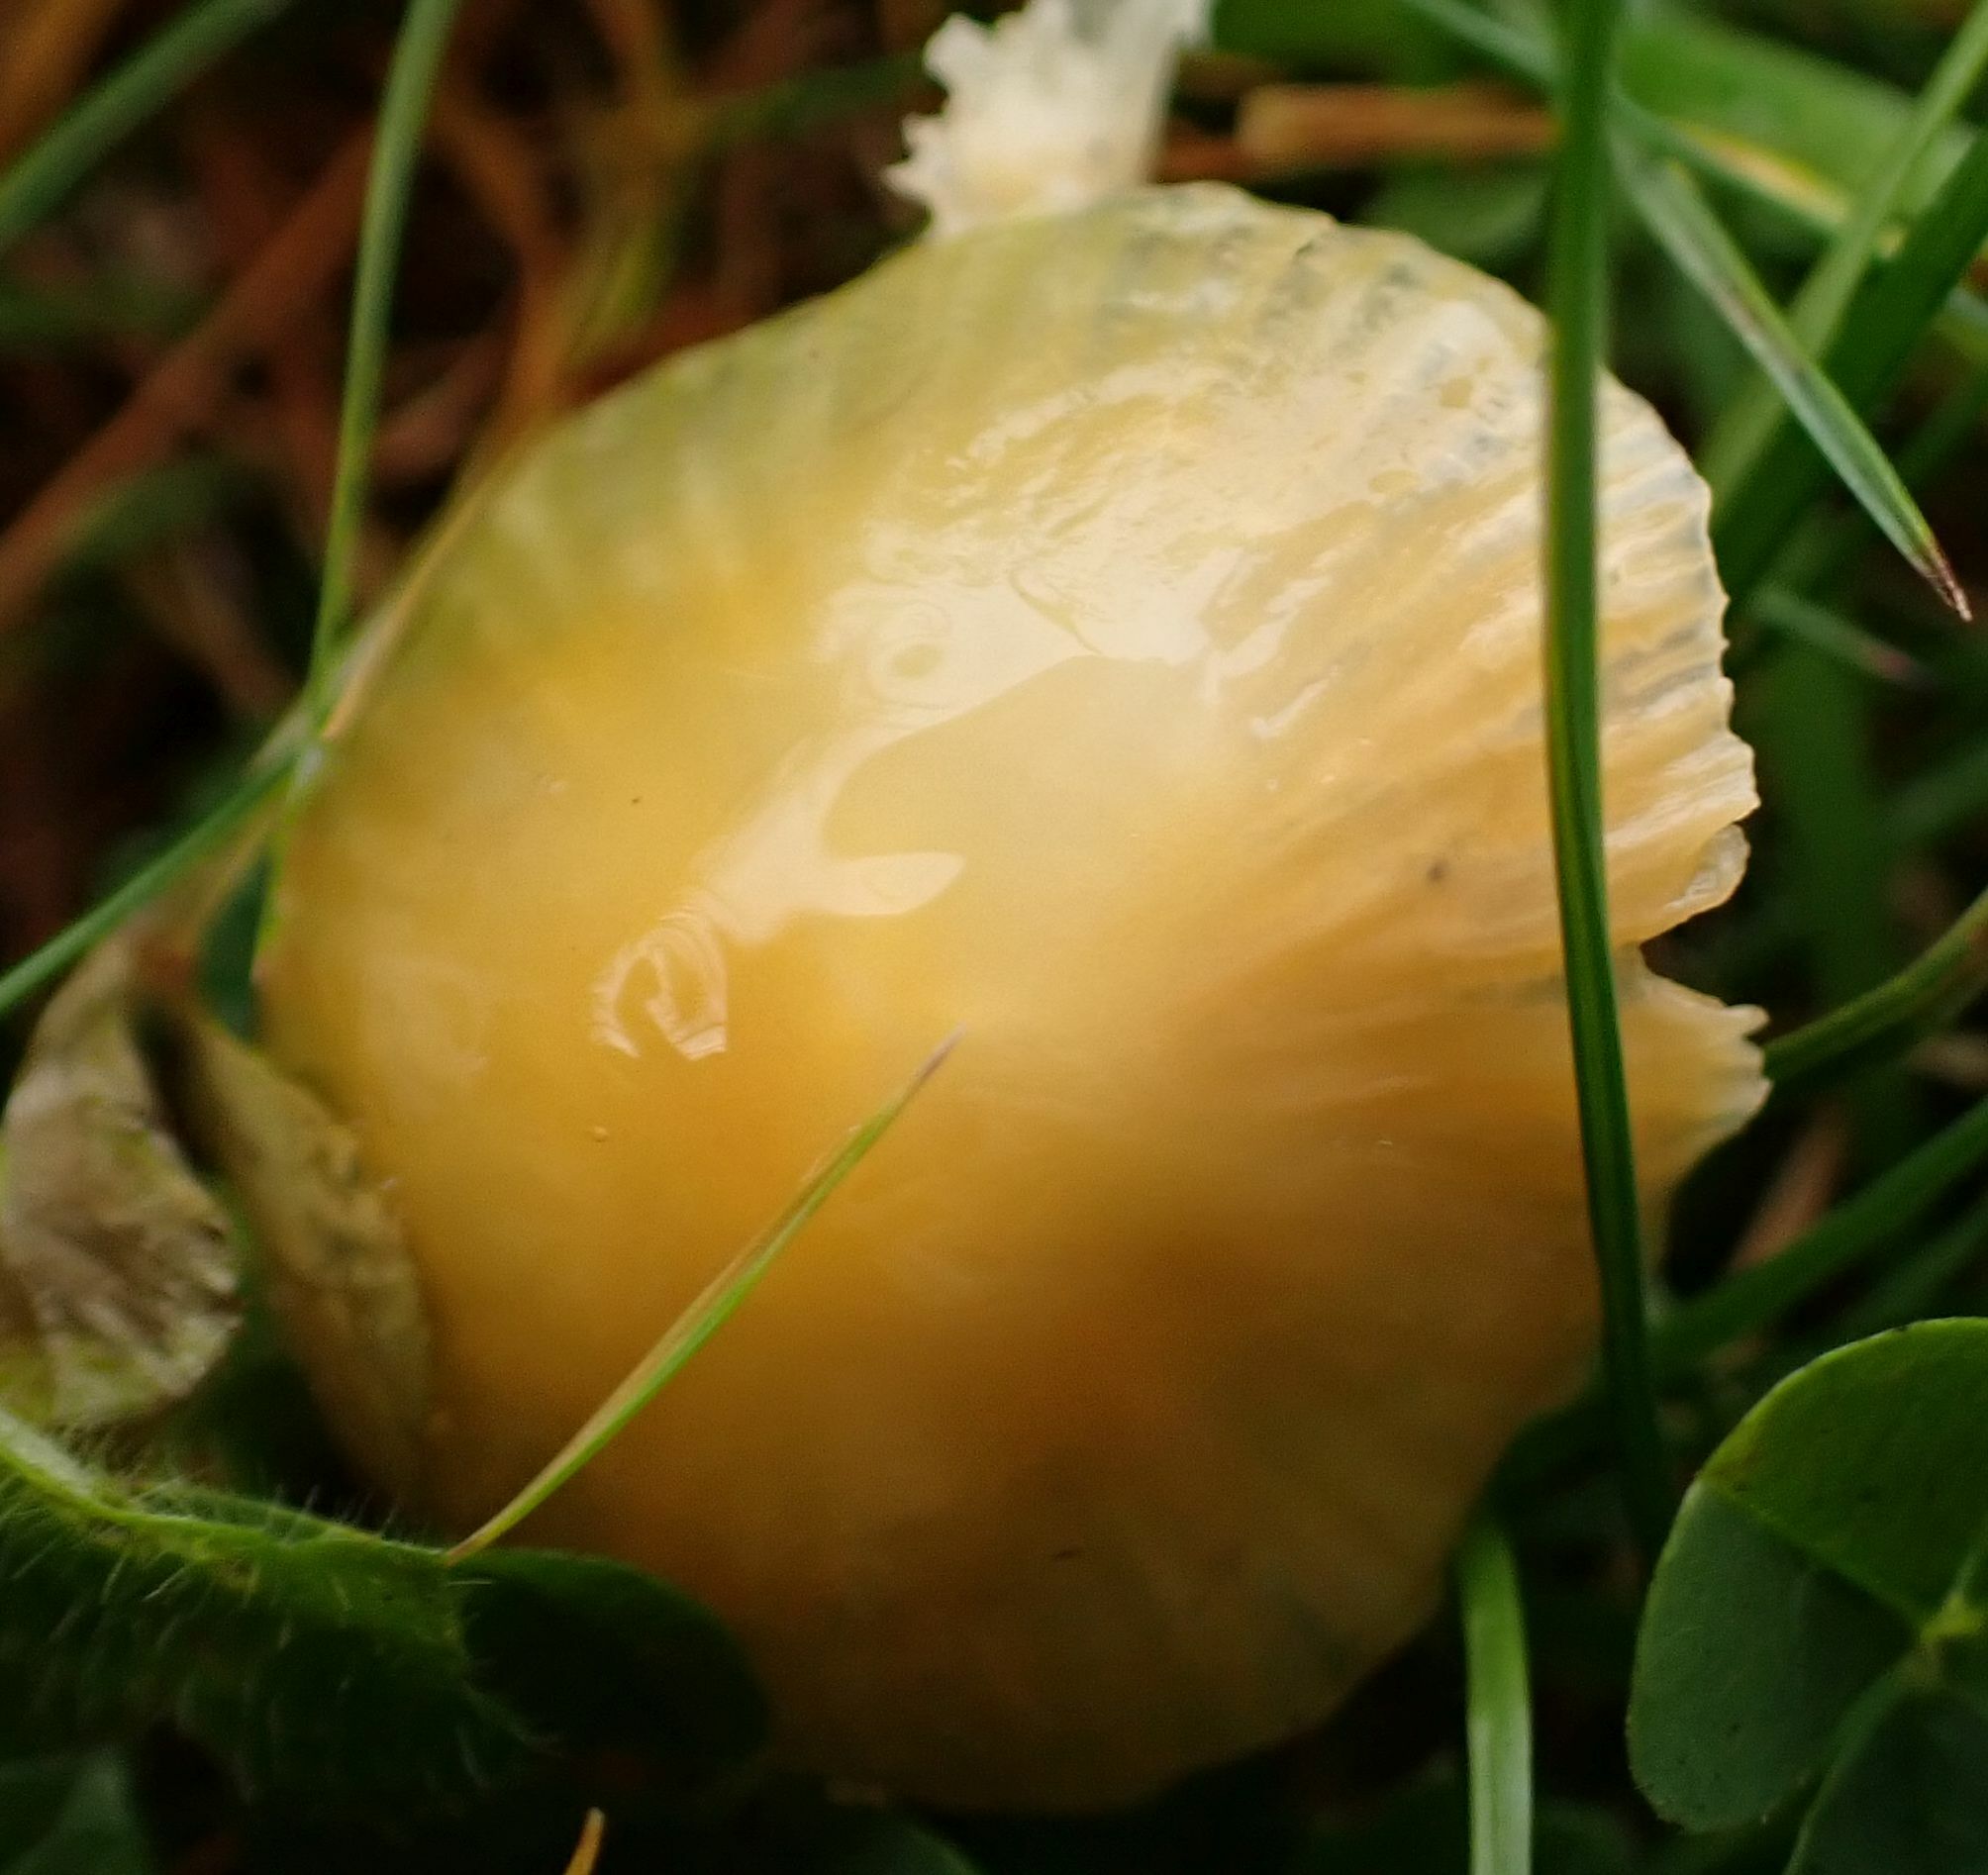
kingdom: Fungi
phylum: Basidiomycota
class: Agaricomycetes
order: Agaricales
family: Hygrophoraceae
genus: Gliophorus
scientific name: Gliophorus psittacinus
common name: Parrot wax-cap
